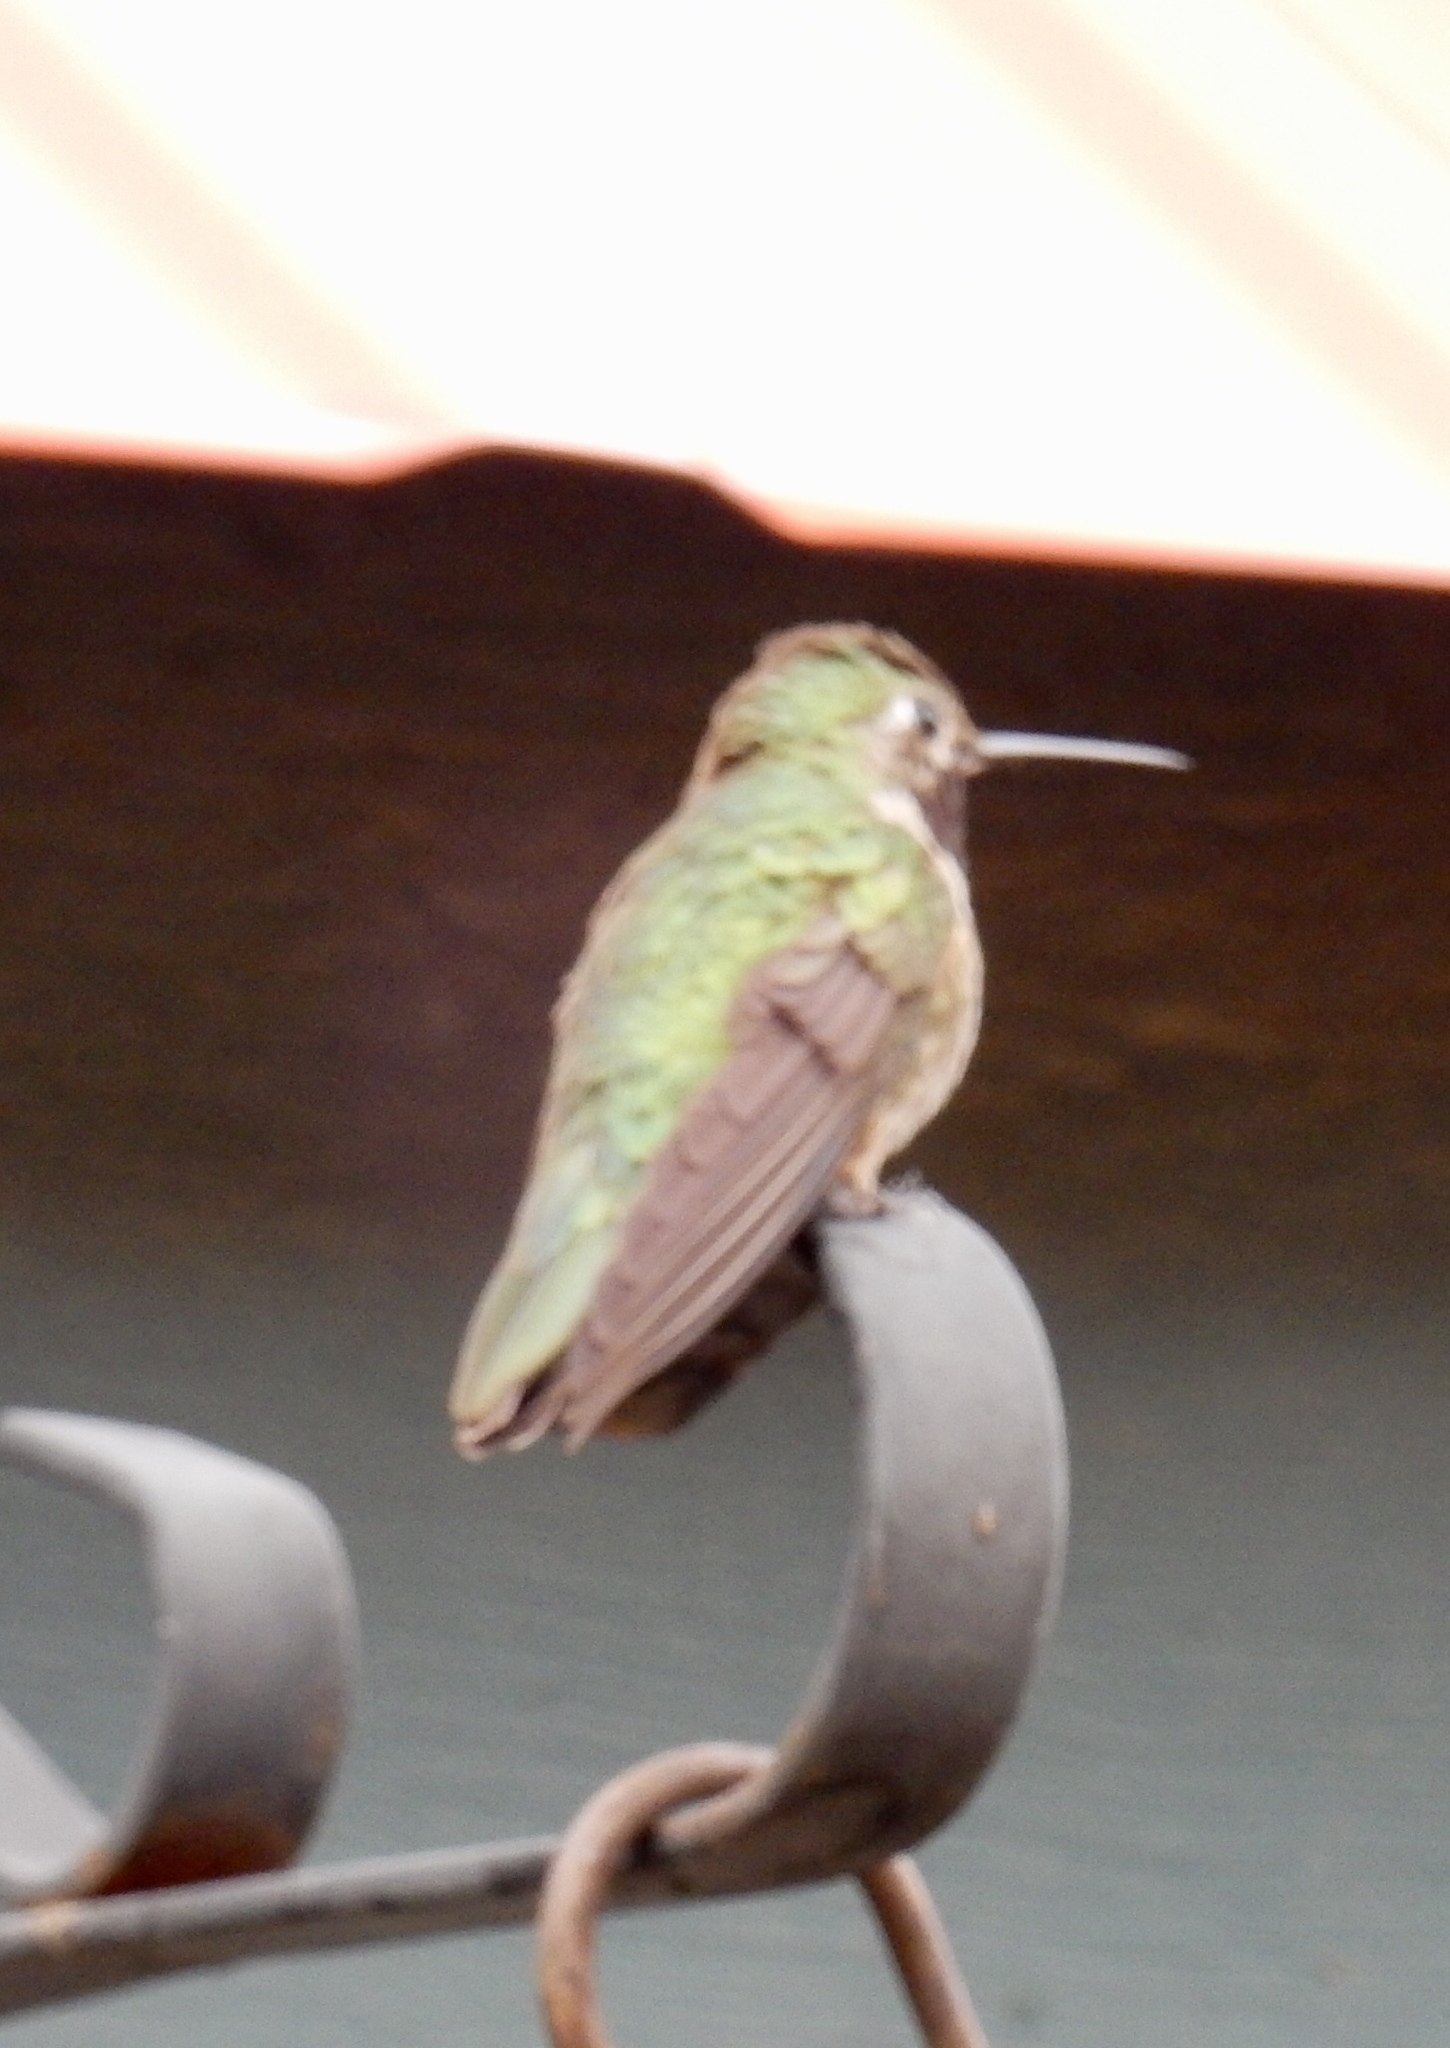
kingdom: Animalia
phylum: Chordata
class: Aves
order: Apodiformes
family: Trochilidae
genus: Selasphorus
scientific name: Selasphorus platycercus
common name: Broad-tailed hummingbird
